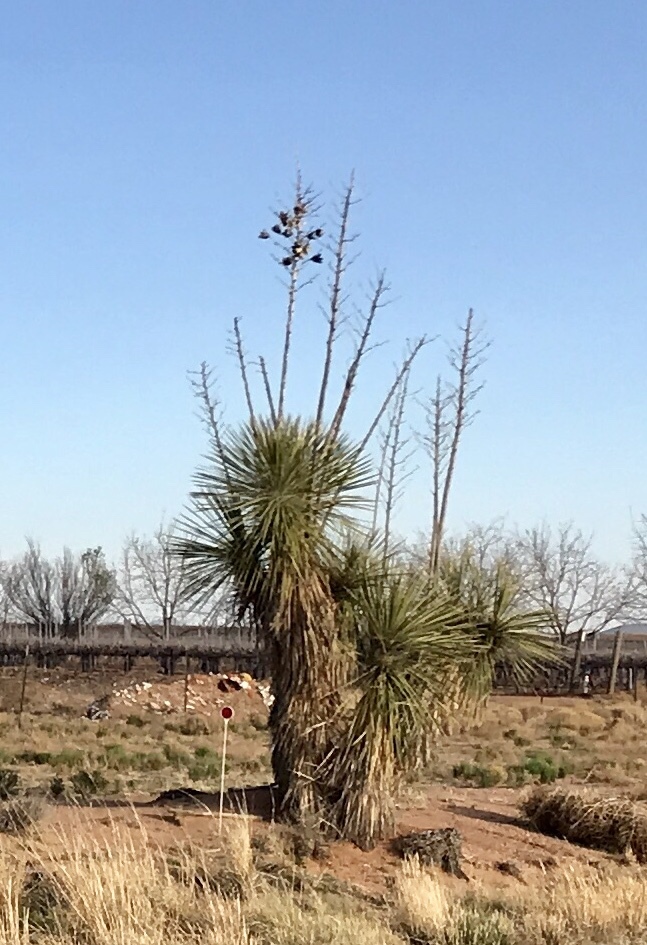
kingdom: Plantae
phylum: Tracheophyta
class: Liliopsida
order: Asparagales
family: Asparagaceae
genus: Yucca
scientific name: Yucca elata
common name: Palmella
